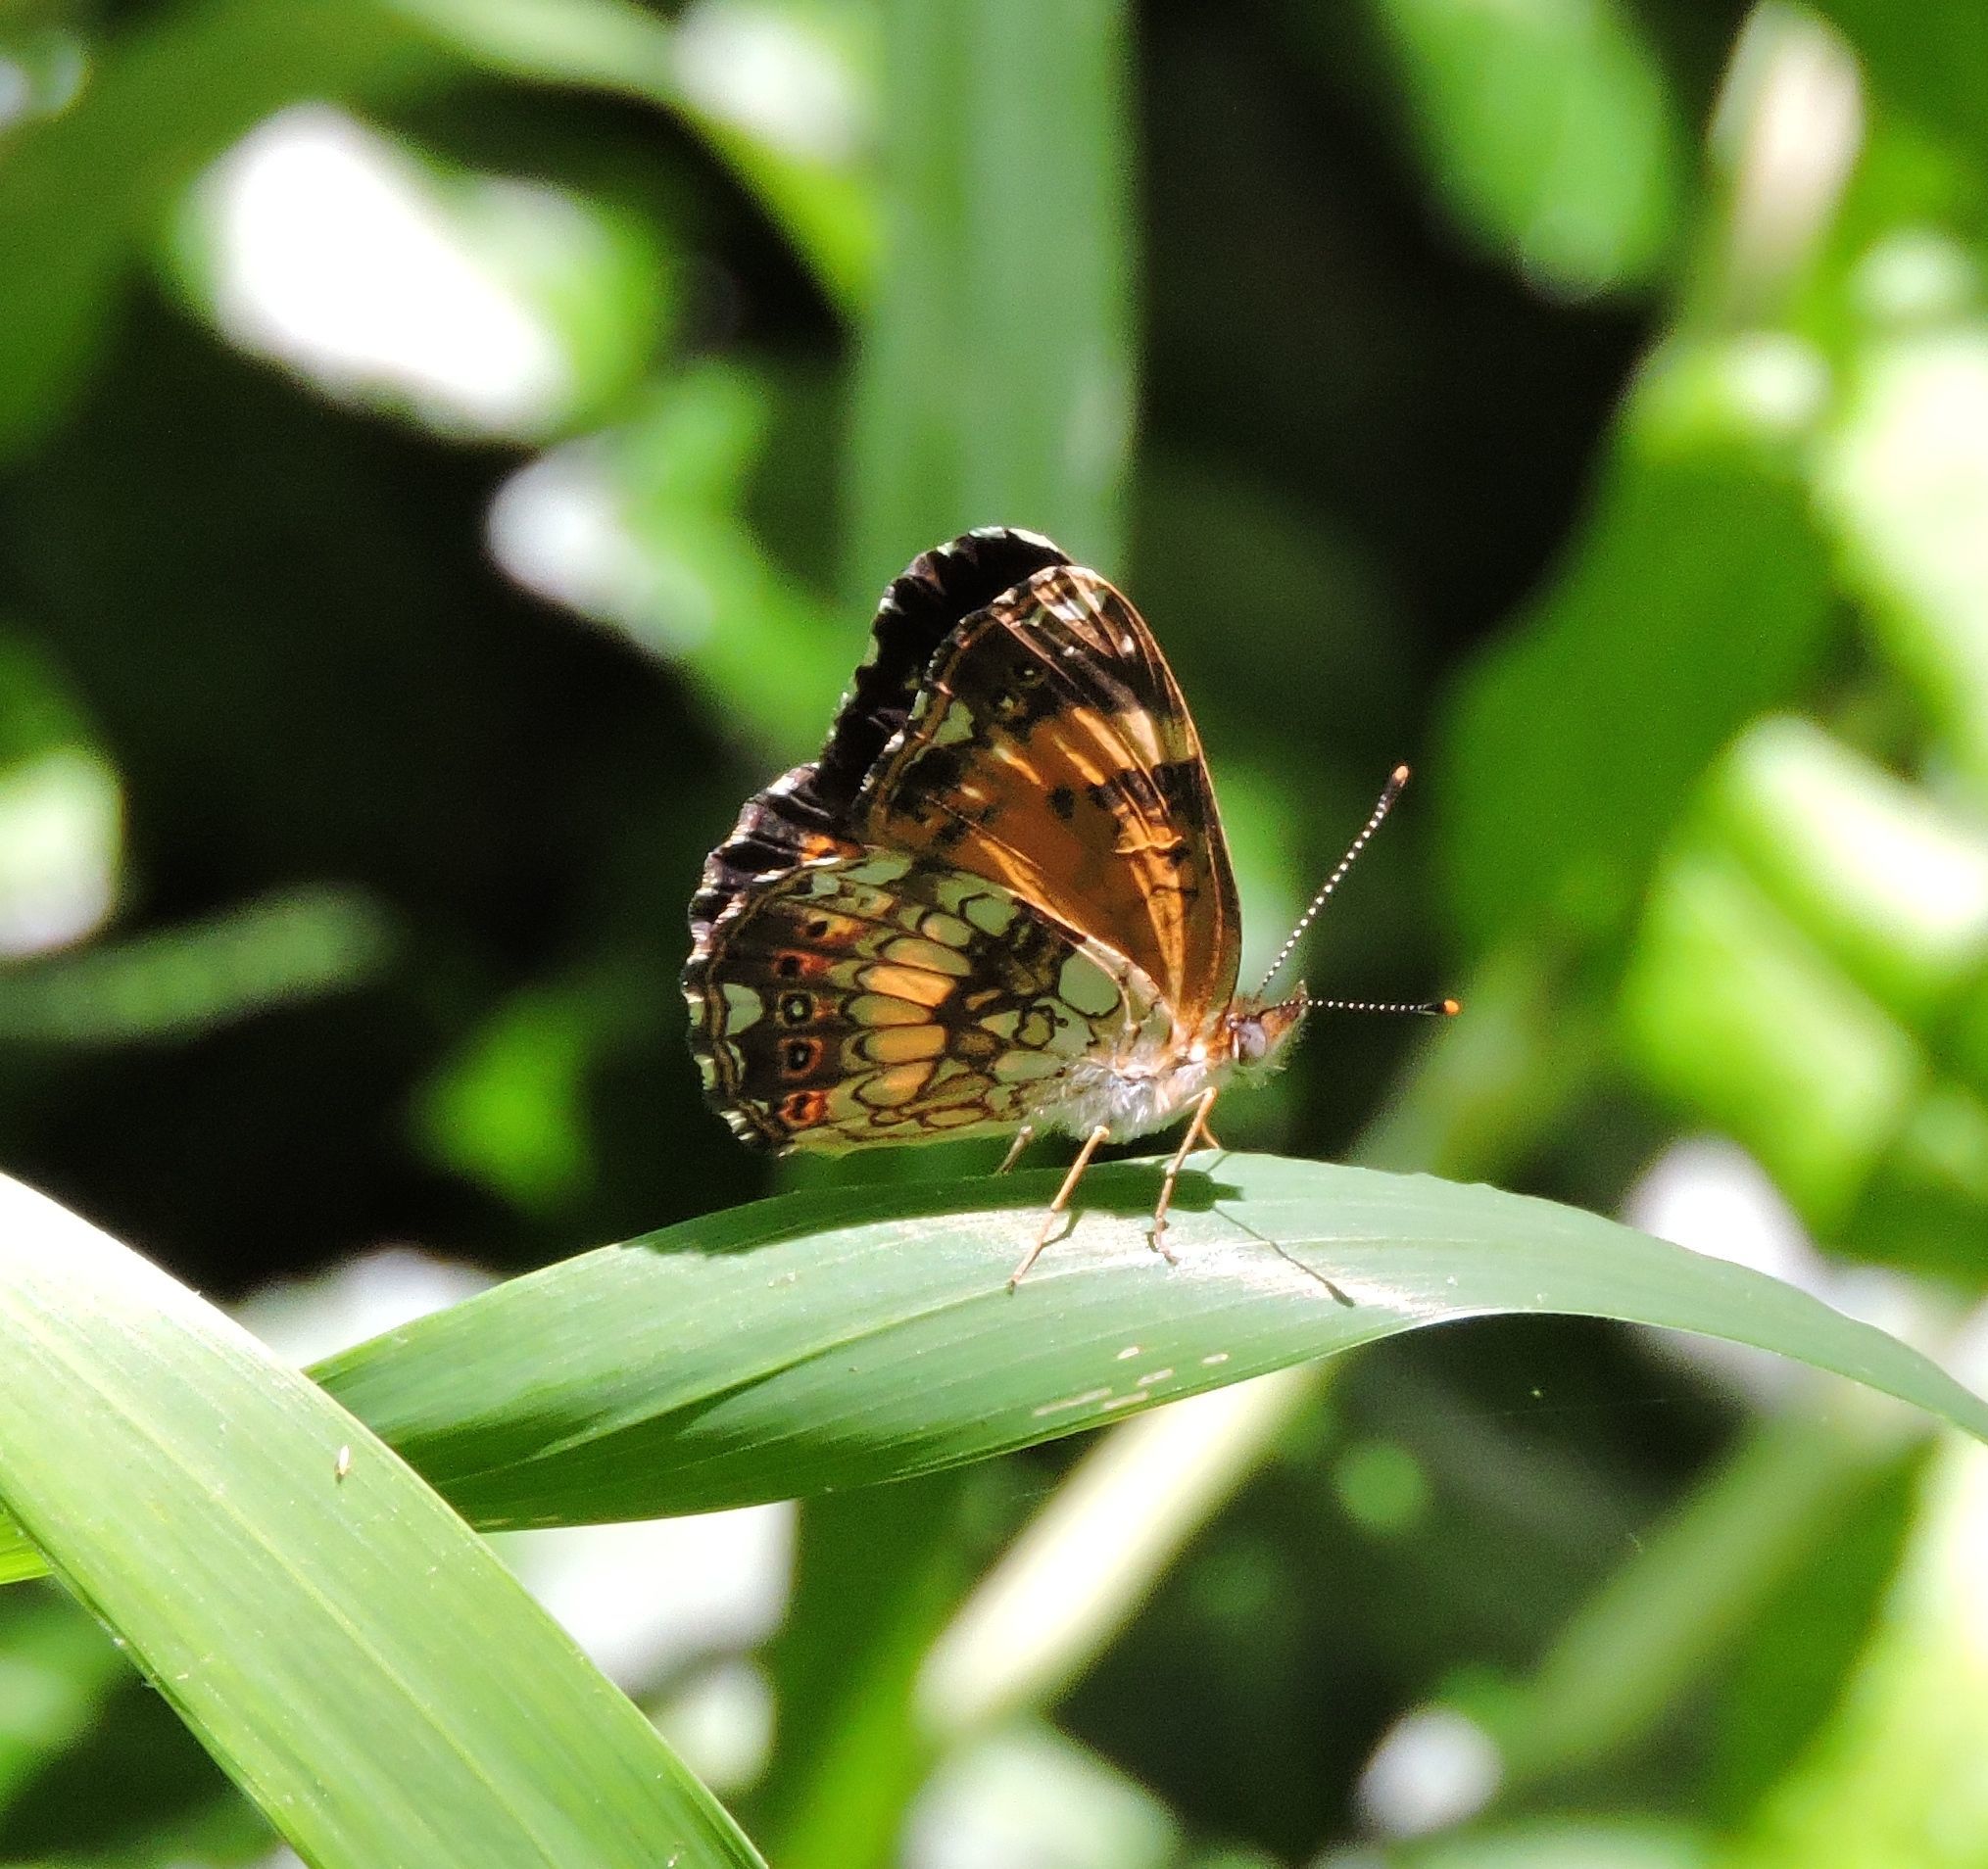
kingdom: Animalia
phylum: Arthropoda
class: Insecta
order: Lepidoptera
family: Nymphalidae
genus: Chlosyne
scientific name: Chlosyne nycteis
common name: Silvery checkerspot
